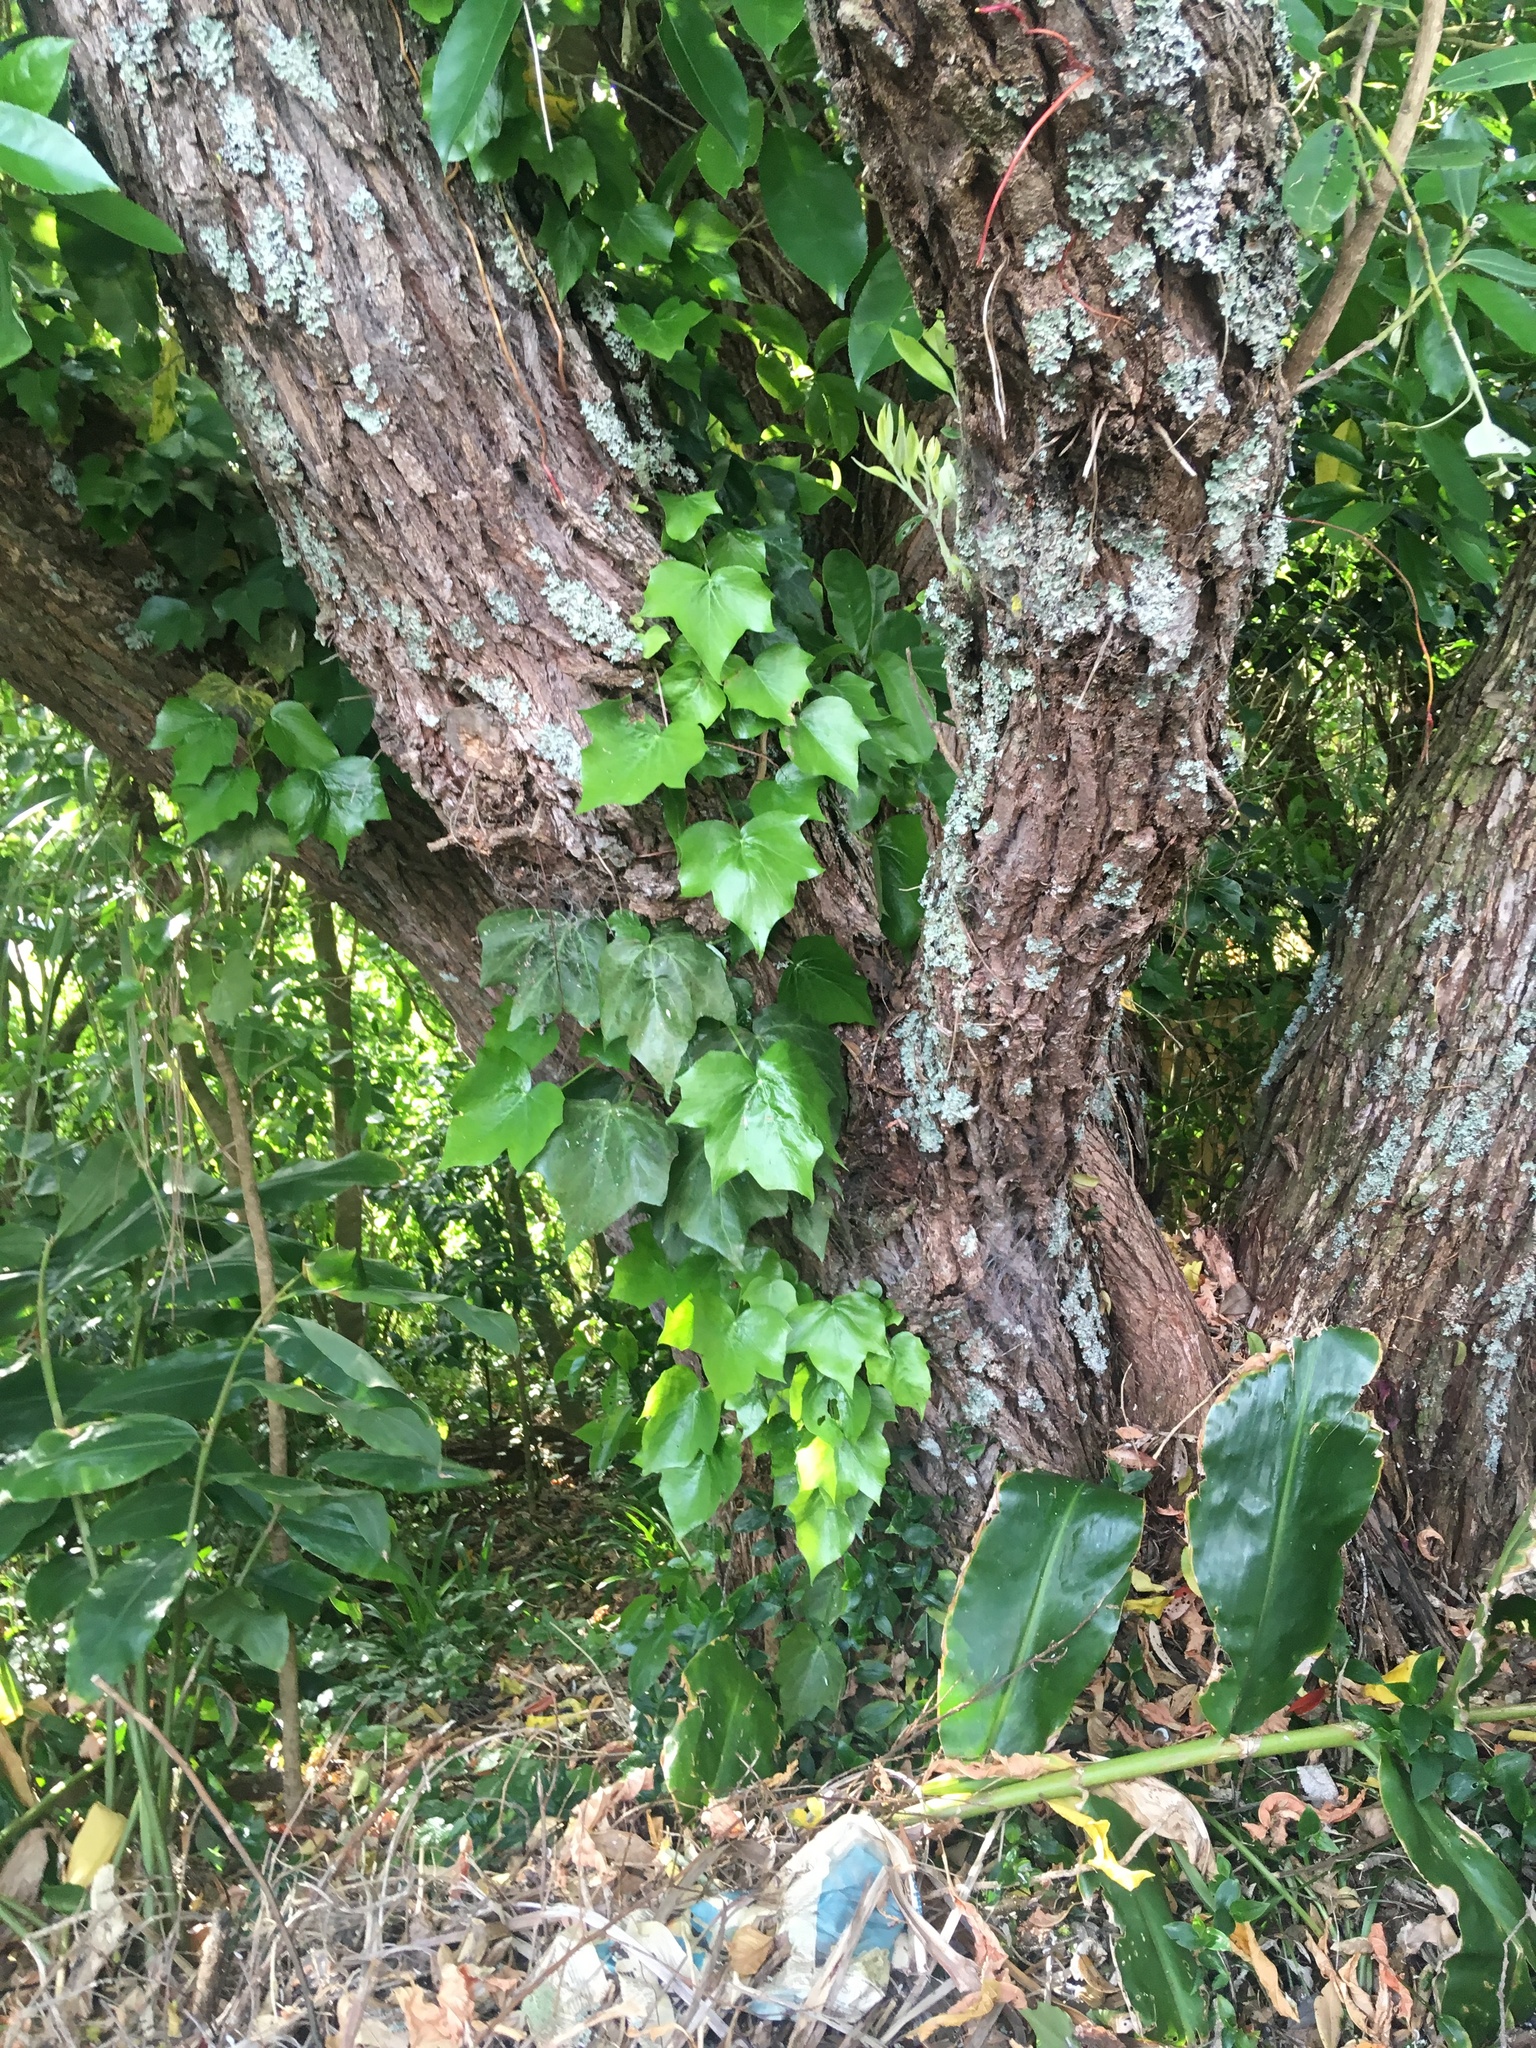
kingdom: Plantae
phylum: Tracheophyta
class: Magnoliopsida
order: Apiales
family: Araliaceae
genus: Hedera
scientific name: Hedera helix
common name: Ivy
